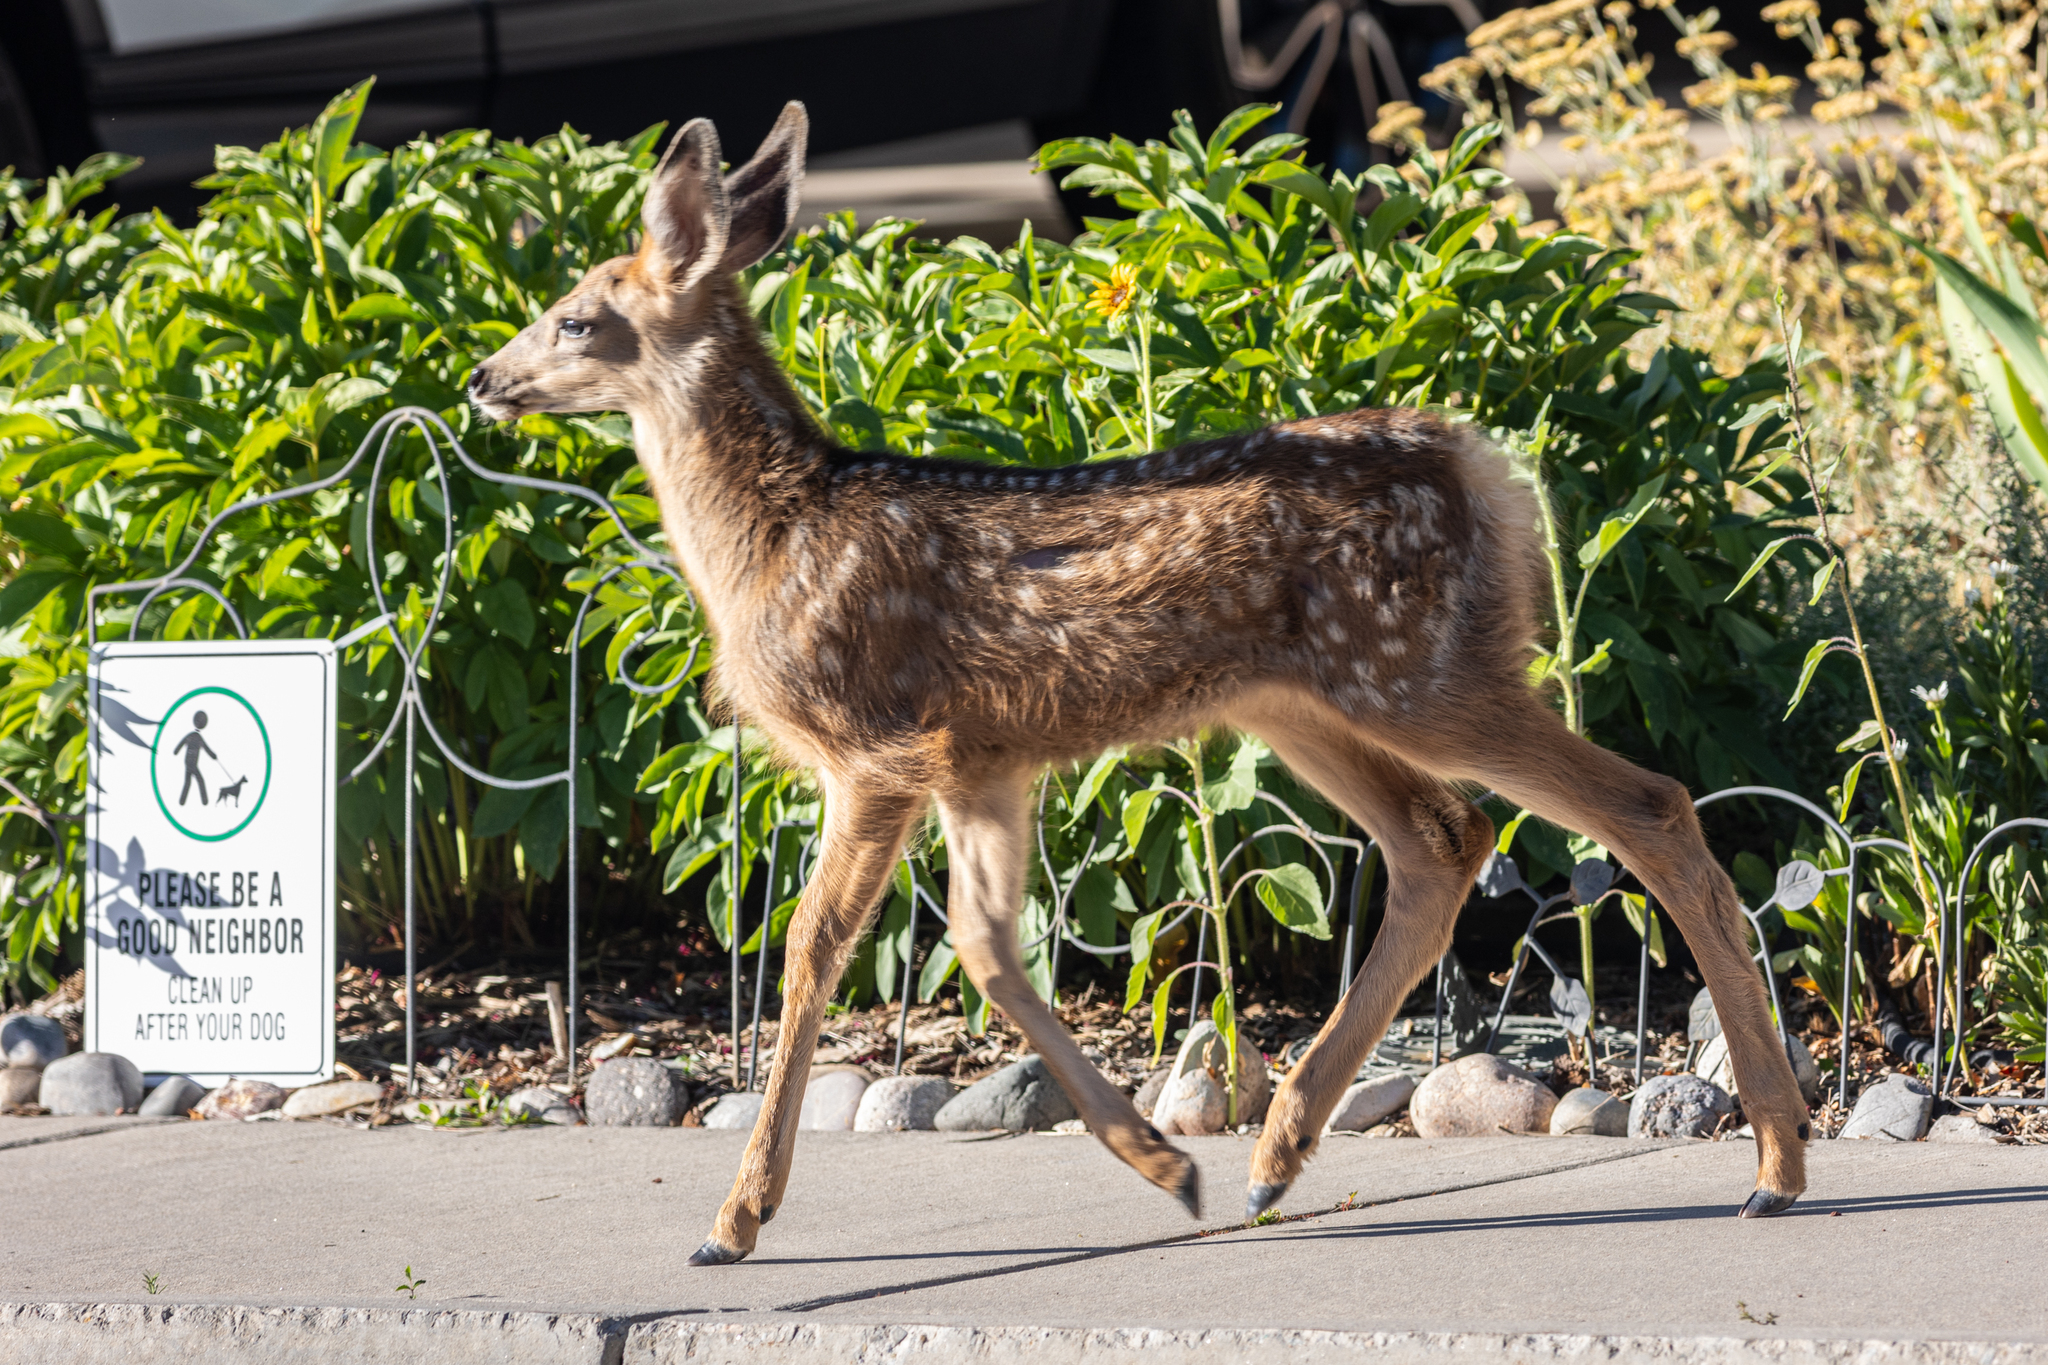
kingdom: Animalia
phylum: Chordata
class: Mammalia
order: Artiodactyla
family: Cervidae
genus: Odocoileus
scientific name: Odocoileus hemionus
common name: Mule deer
